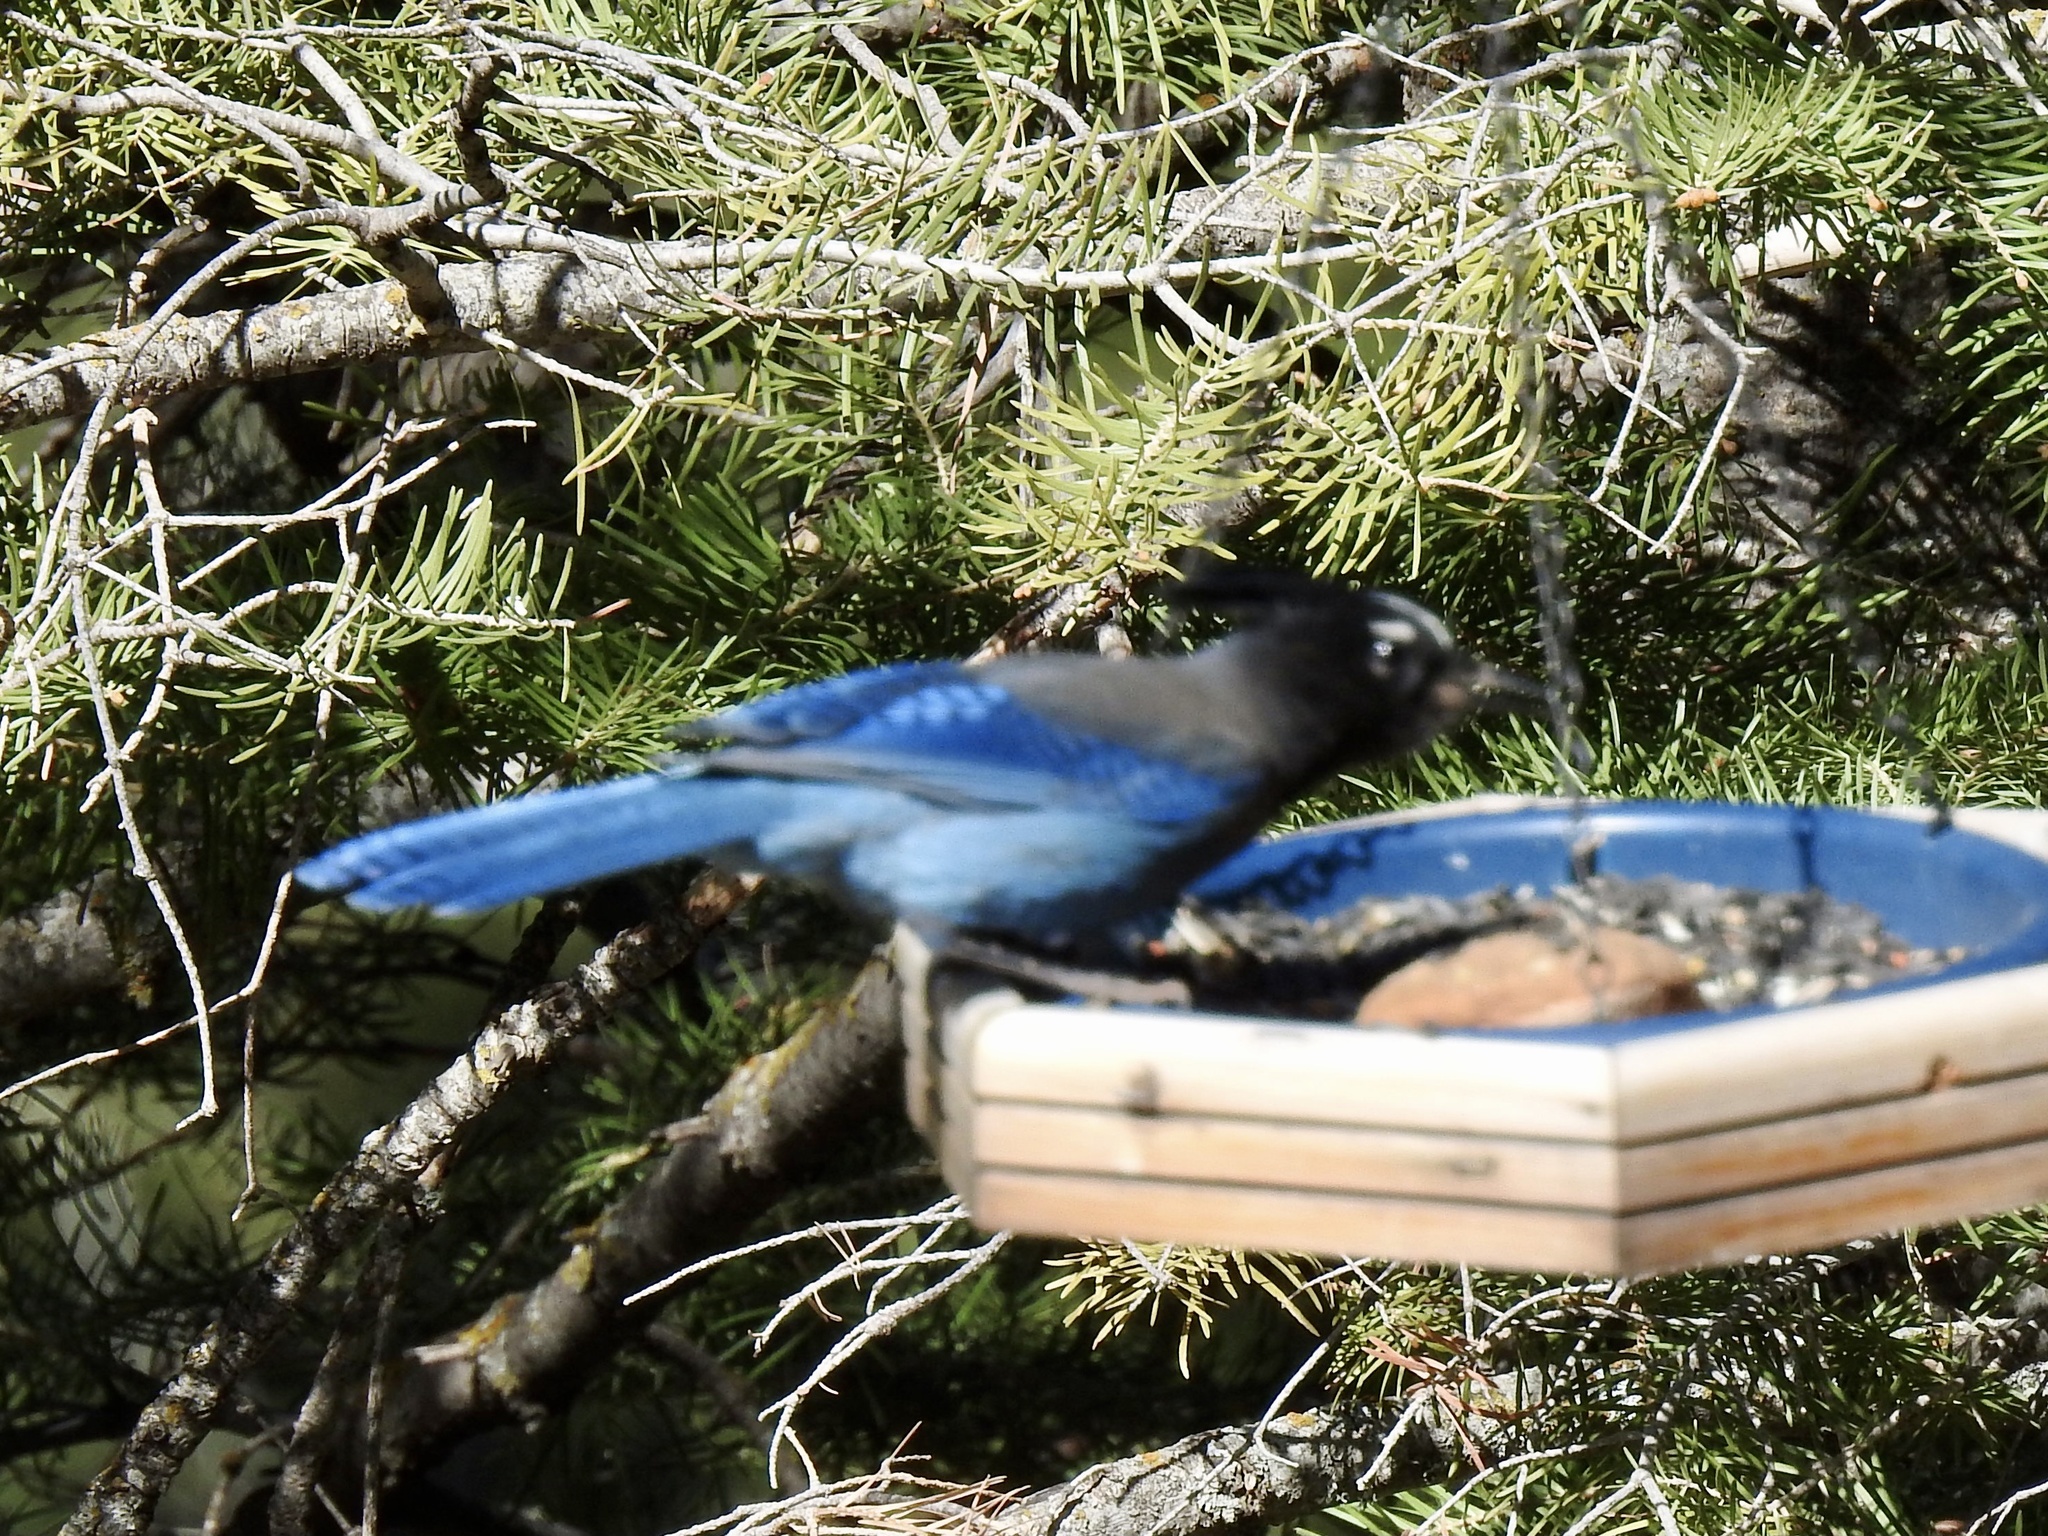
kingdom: Animalia
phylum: Chordata
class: Aves
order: Passeriformes
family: Corvidae
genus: Cyanocitta
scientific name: Cyanocitta stelleri
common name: Steller's jay
